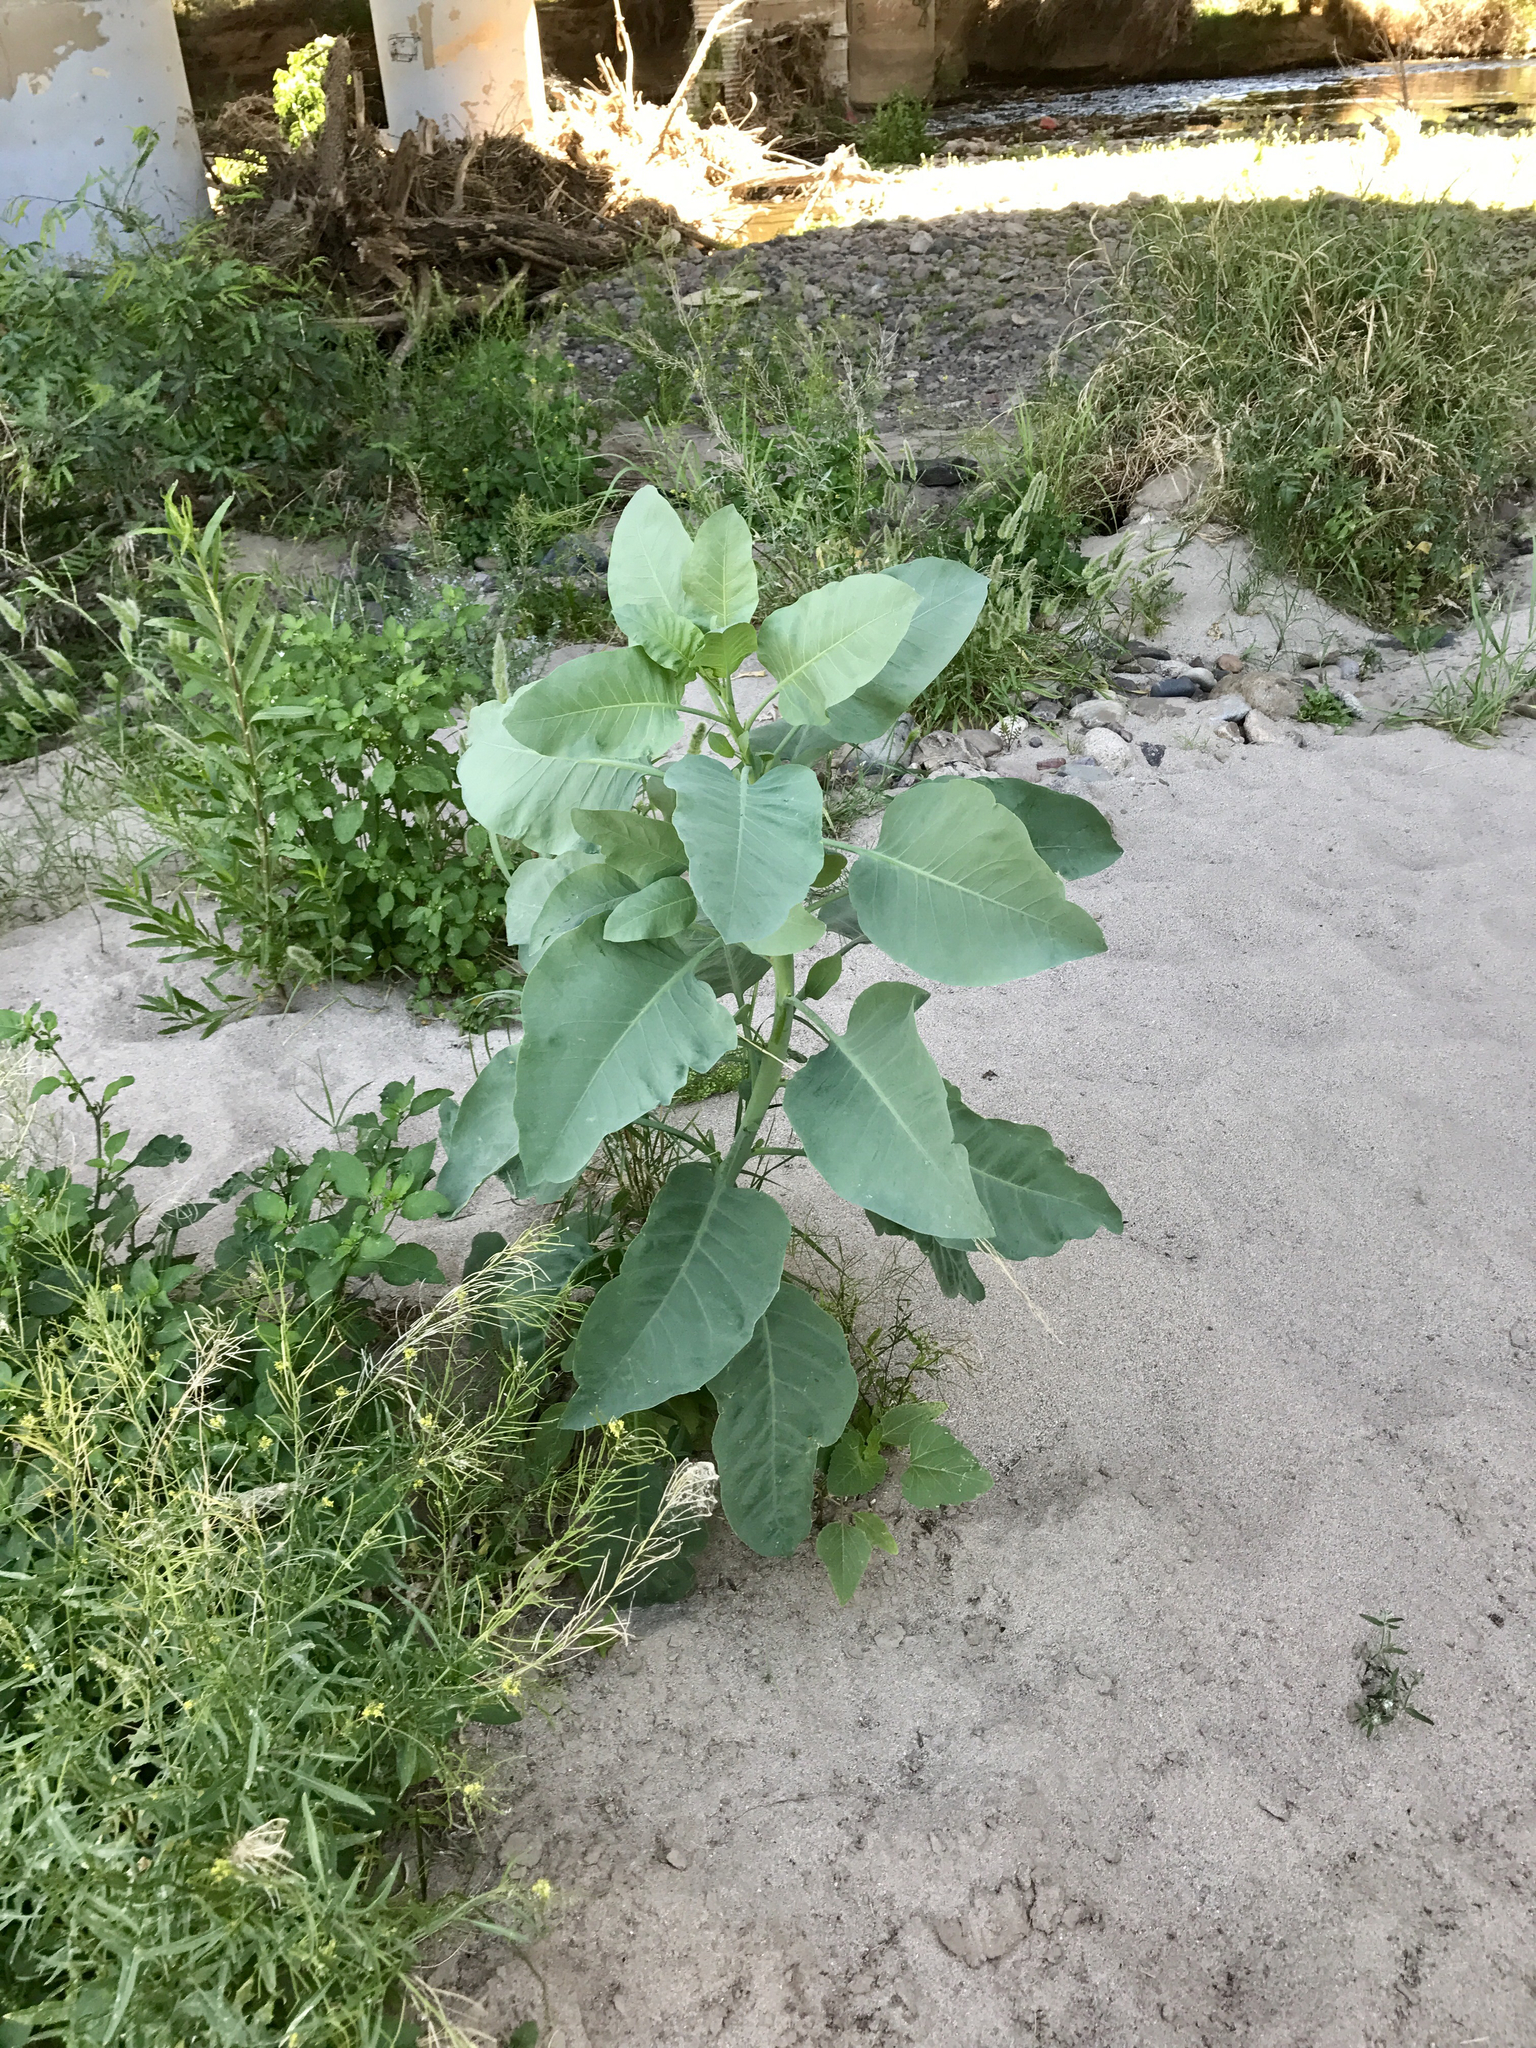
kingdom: Plantae
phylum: Tracheophyta
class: Magnoliopsida
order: Solanales
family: Solanaceae
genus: Nicotiana
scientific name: Nicotiana glauca
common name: Tree tobacco
